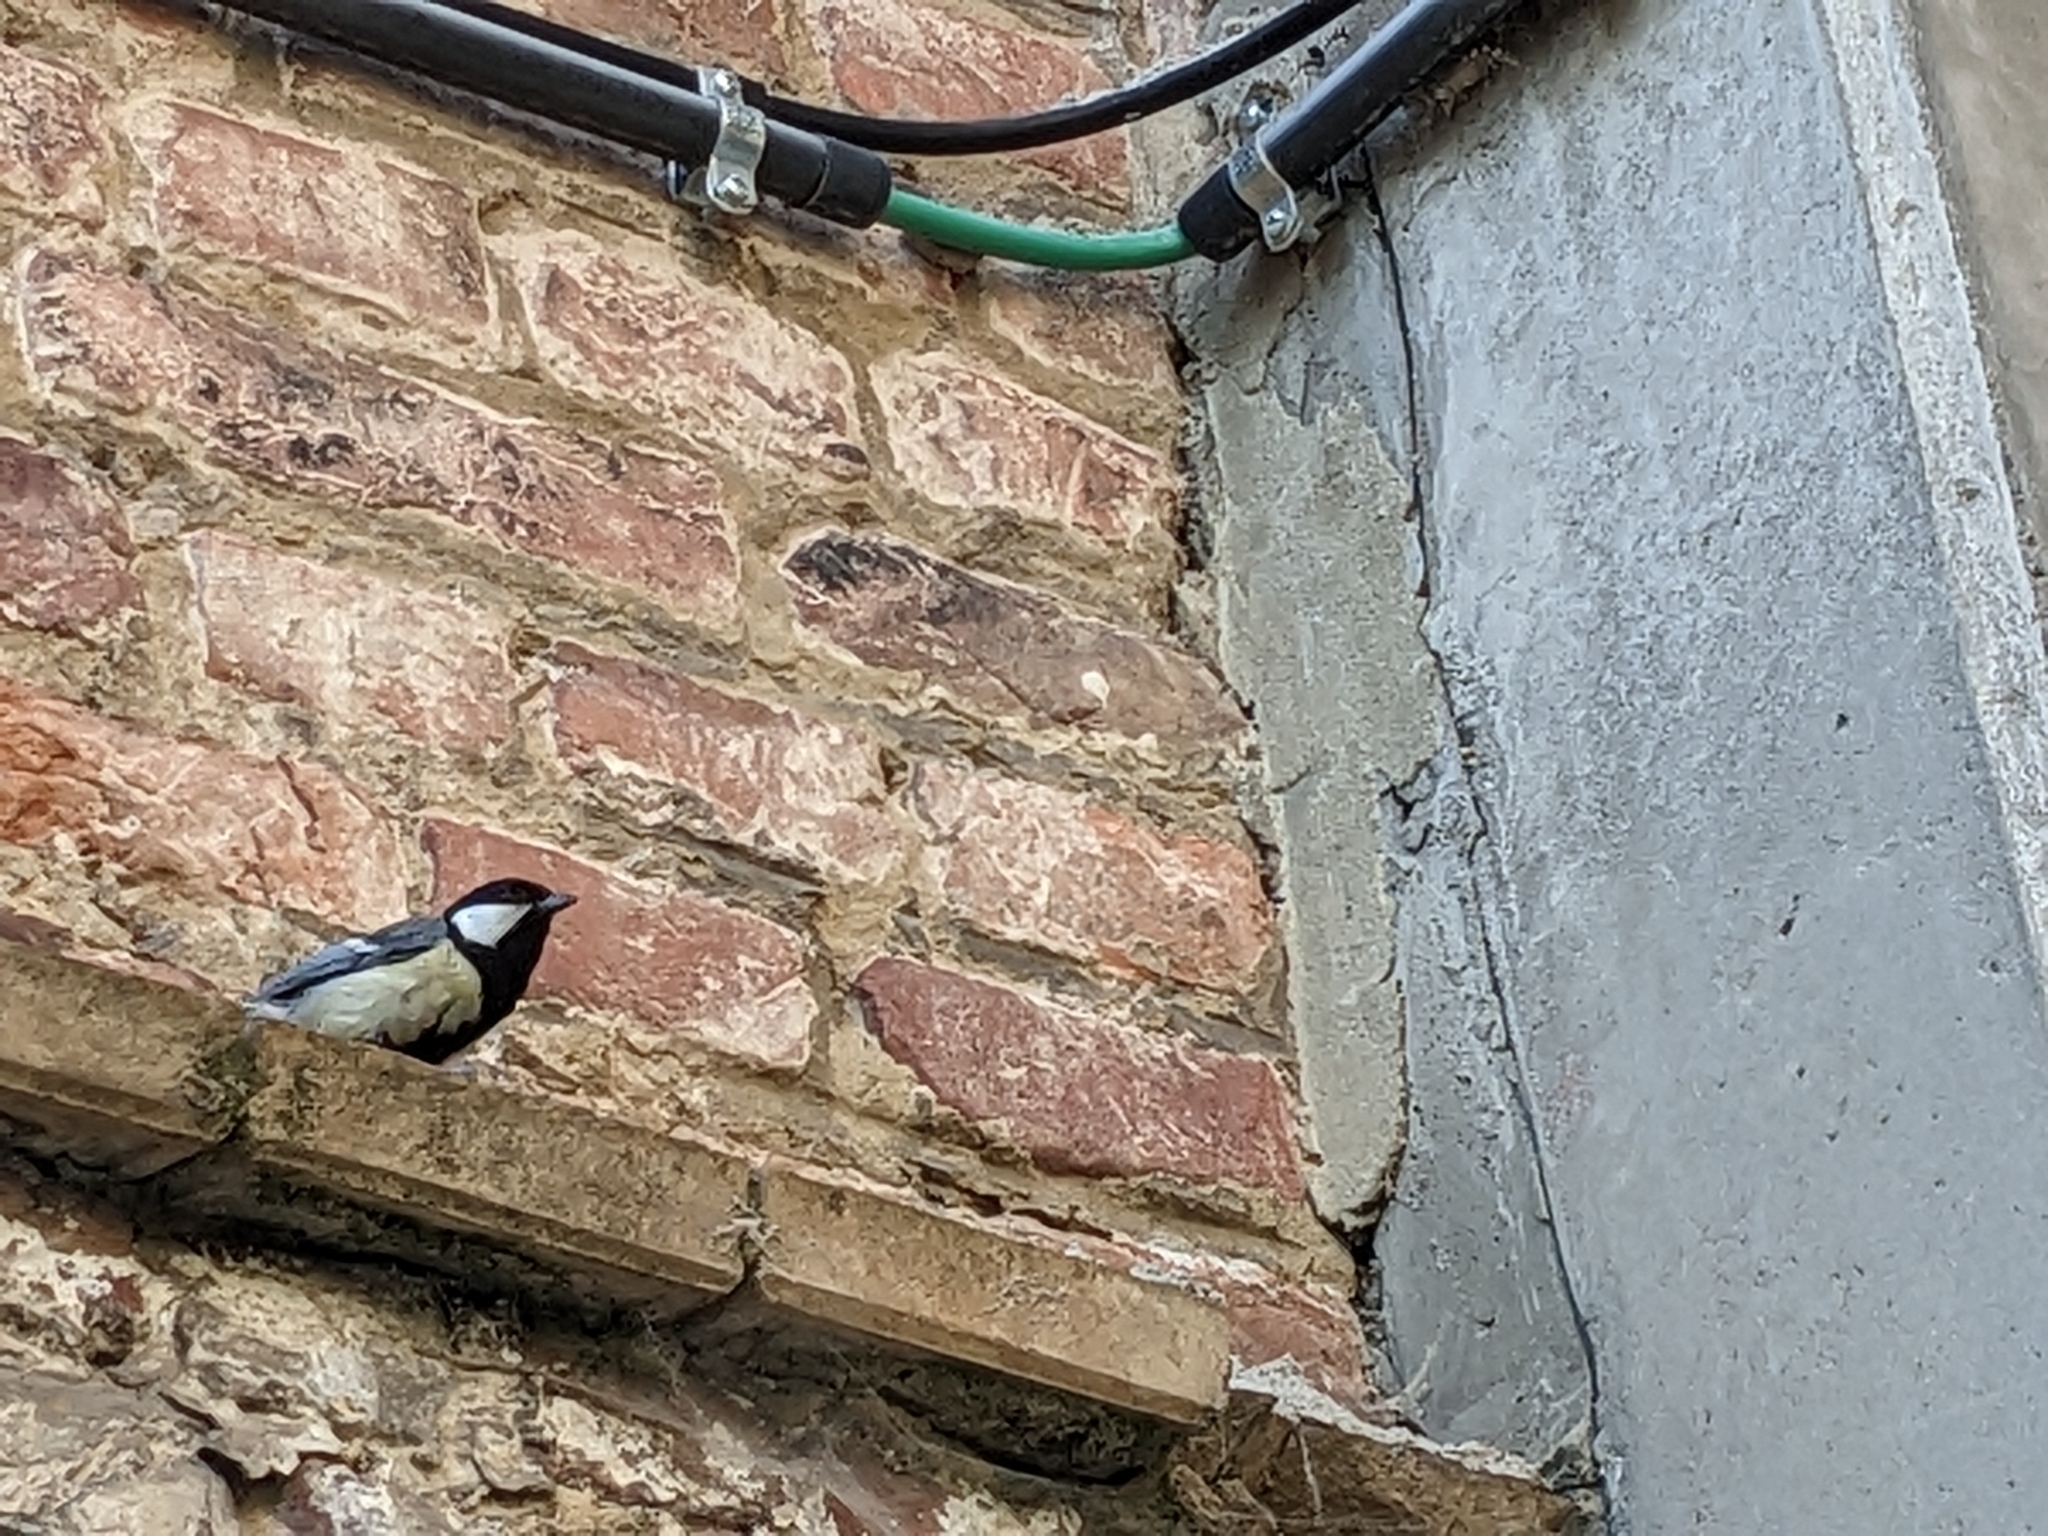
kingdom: Animalia
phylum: Chordata
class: Aves
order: Passeriformes
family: Paridae
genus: Parus
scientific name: Parus major
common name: Great tit
